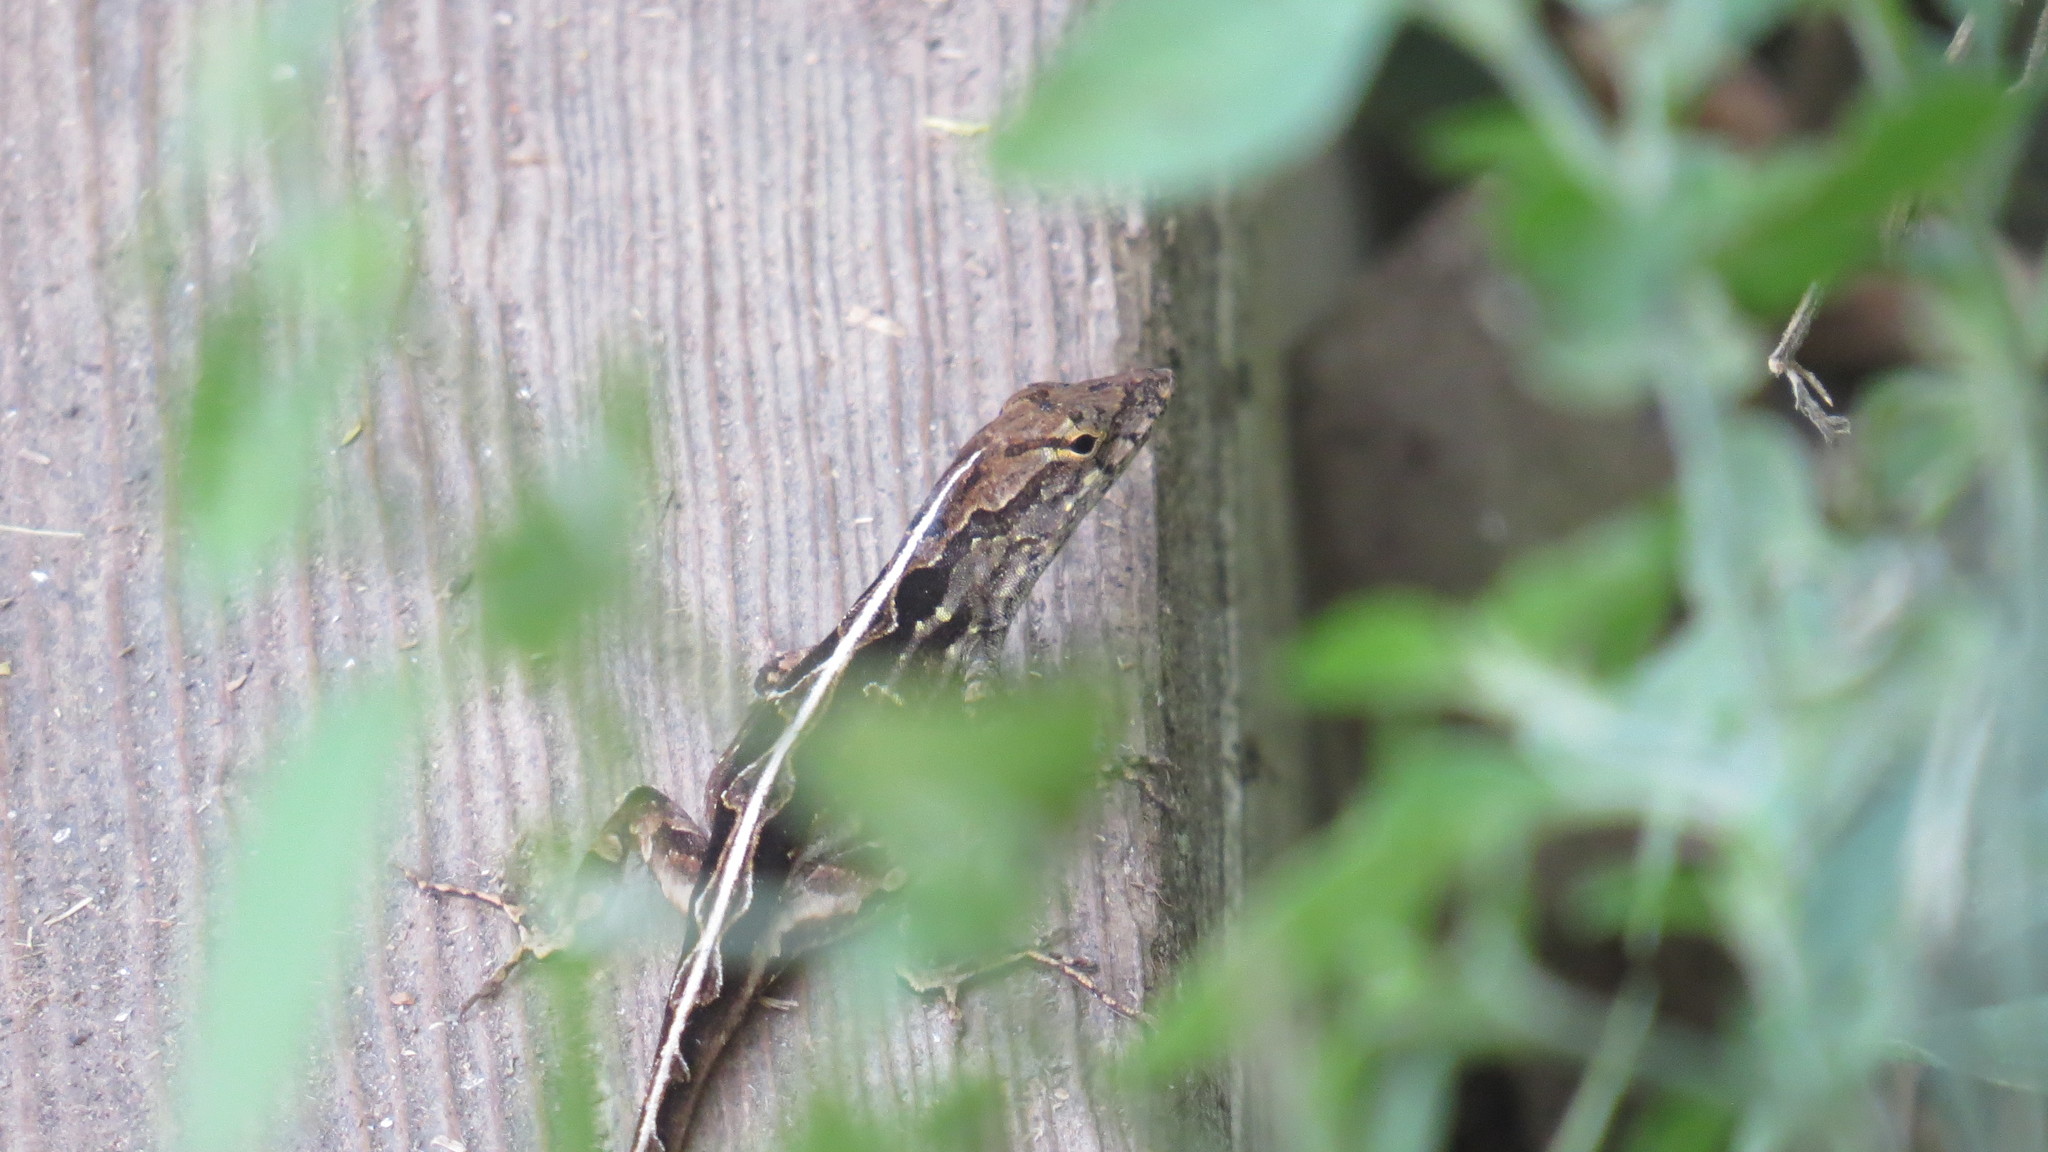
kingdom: Animalia
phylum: Chordata
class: Squamata
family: Dactyloidae
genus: Anolis
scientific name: Anolis sagrei
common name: Brown anole
